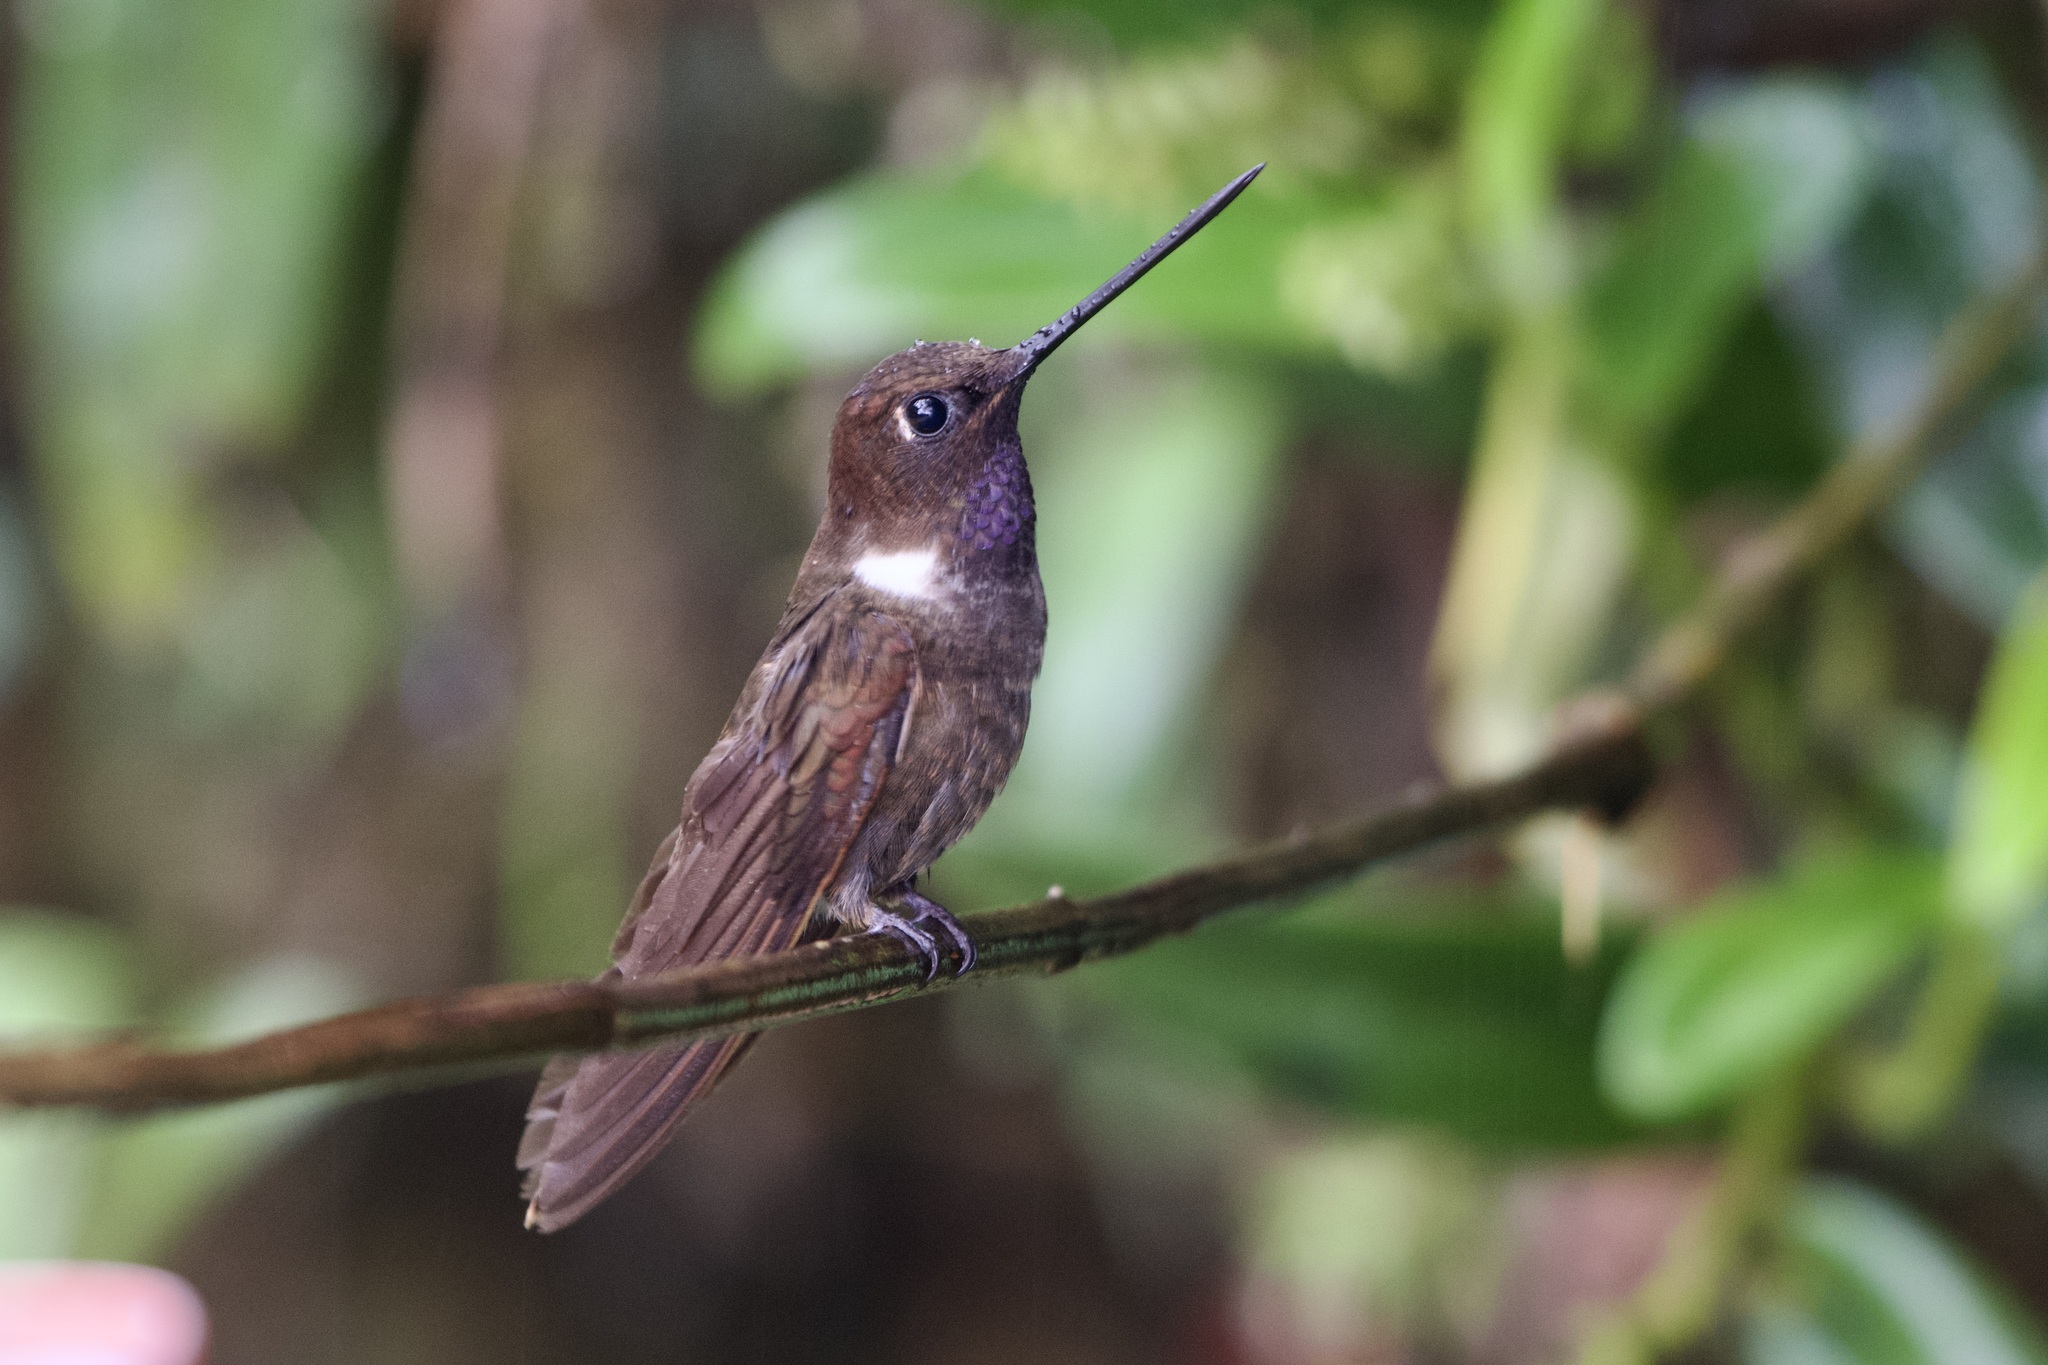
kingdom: Animalia
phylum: Chordata
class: Aves
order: Apodiformes
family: Trochilidae
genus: Coeligena
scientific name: Coeligena wilsoni
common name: Brown inca
